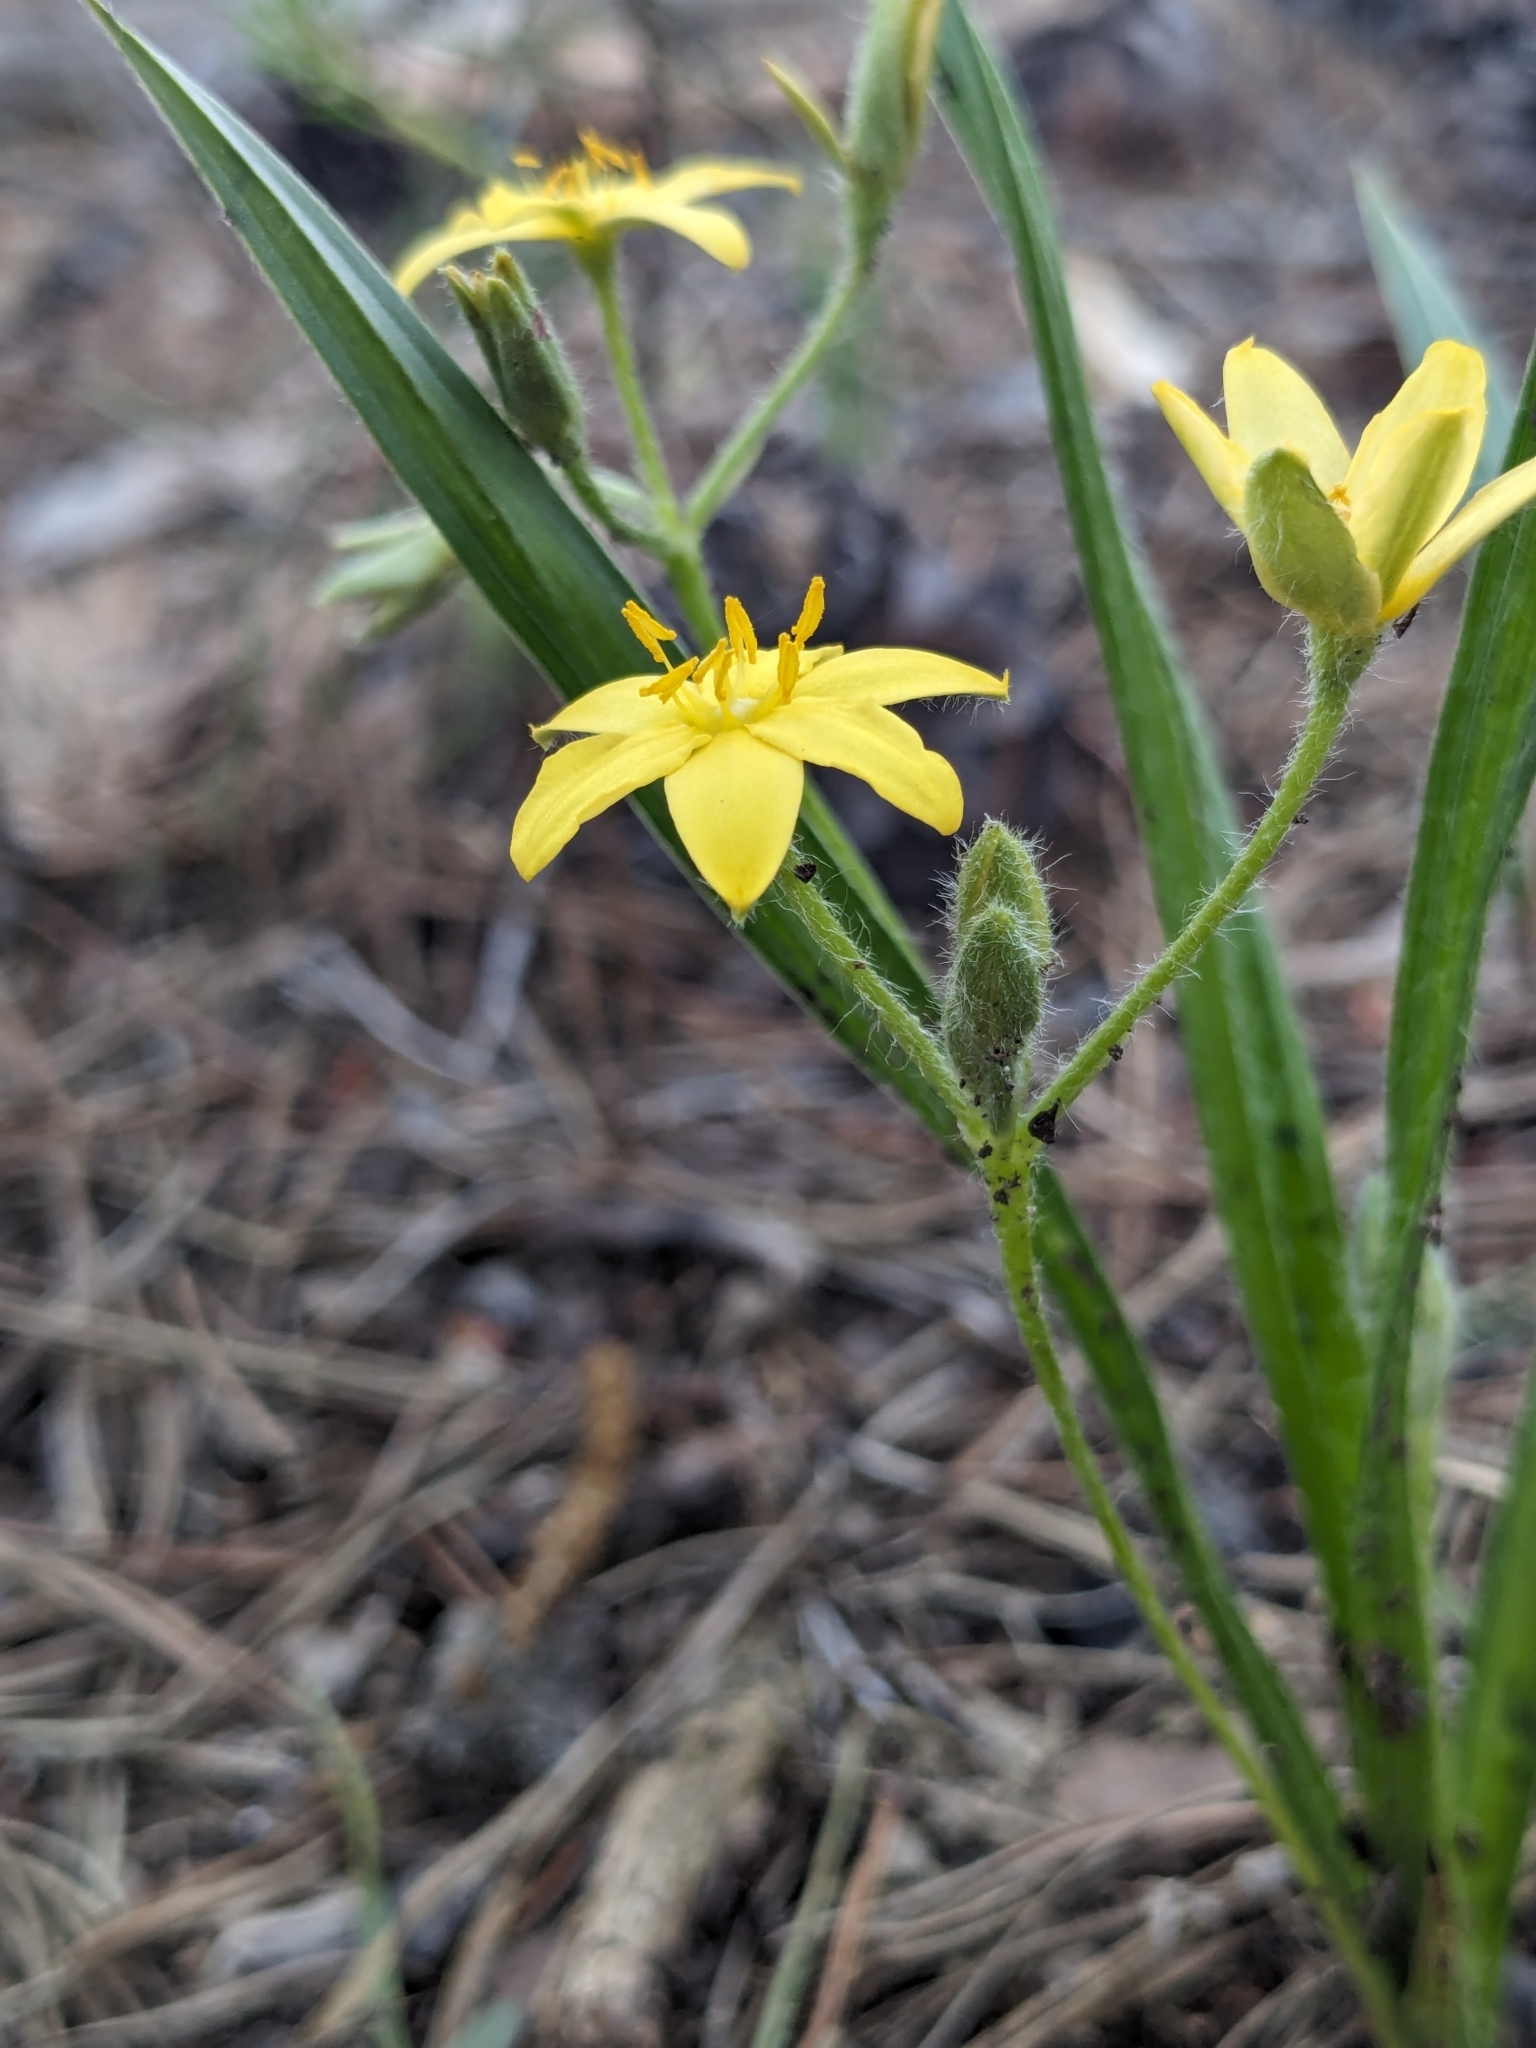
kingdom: Plantae
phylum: Tracheophyta
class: Liliopsida
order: Asparagales
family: Hypoxidaceae
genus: Hypoxis
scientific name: Hypoxis hirsuta
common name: Common goldstar
